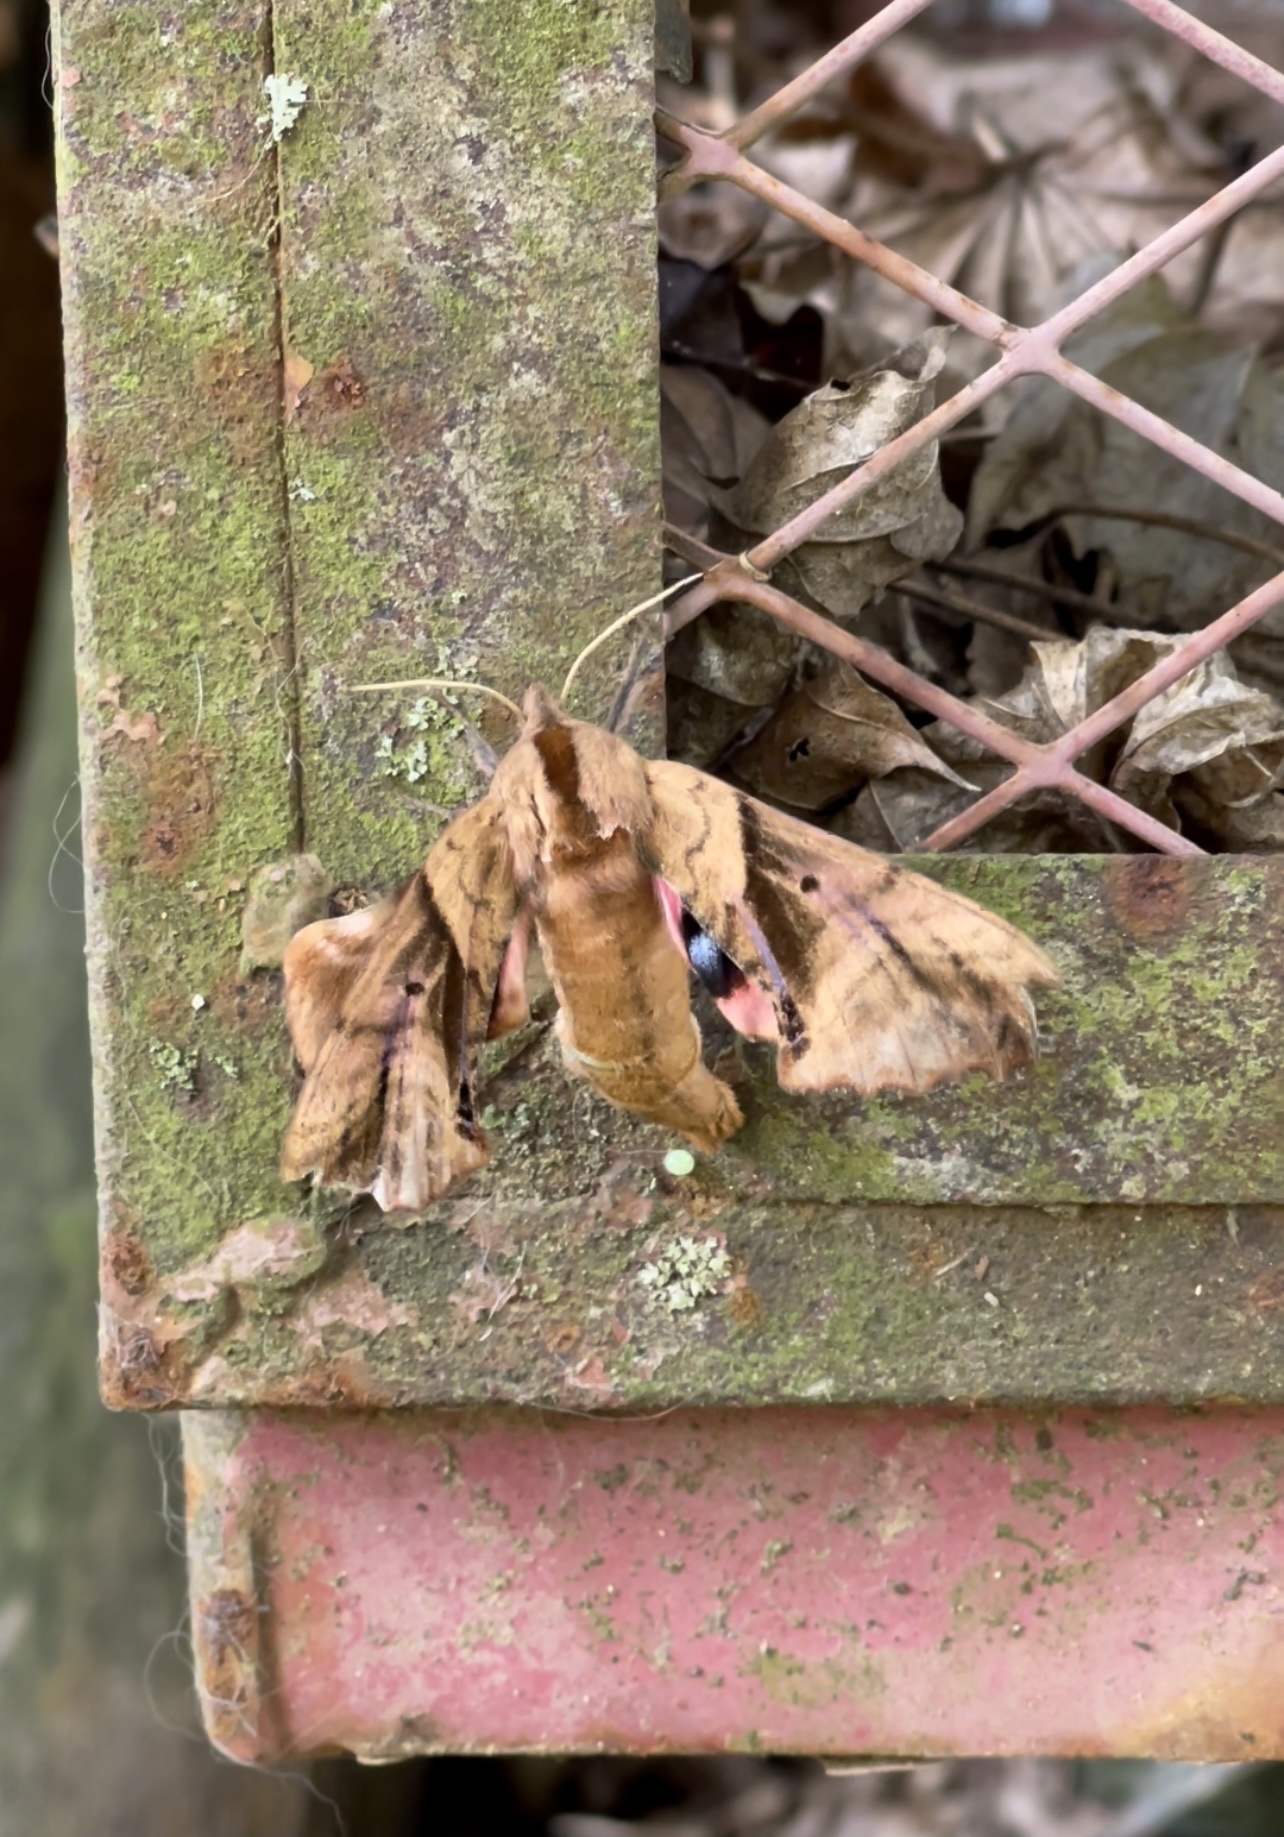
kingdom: Animalia
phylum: Arthropoda
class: Insecta
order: Lepidoptera
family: Sphingidae
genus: Paonias
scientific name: Paonias excaecata
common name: Blind-eyed sphinx
